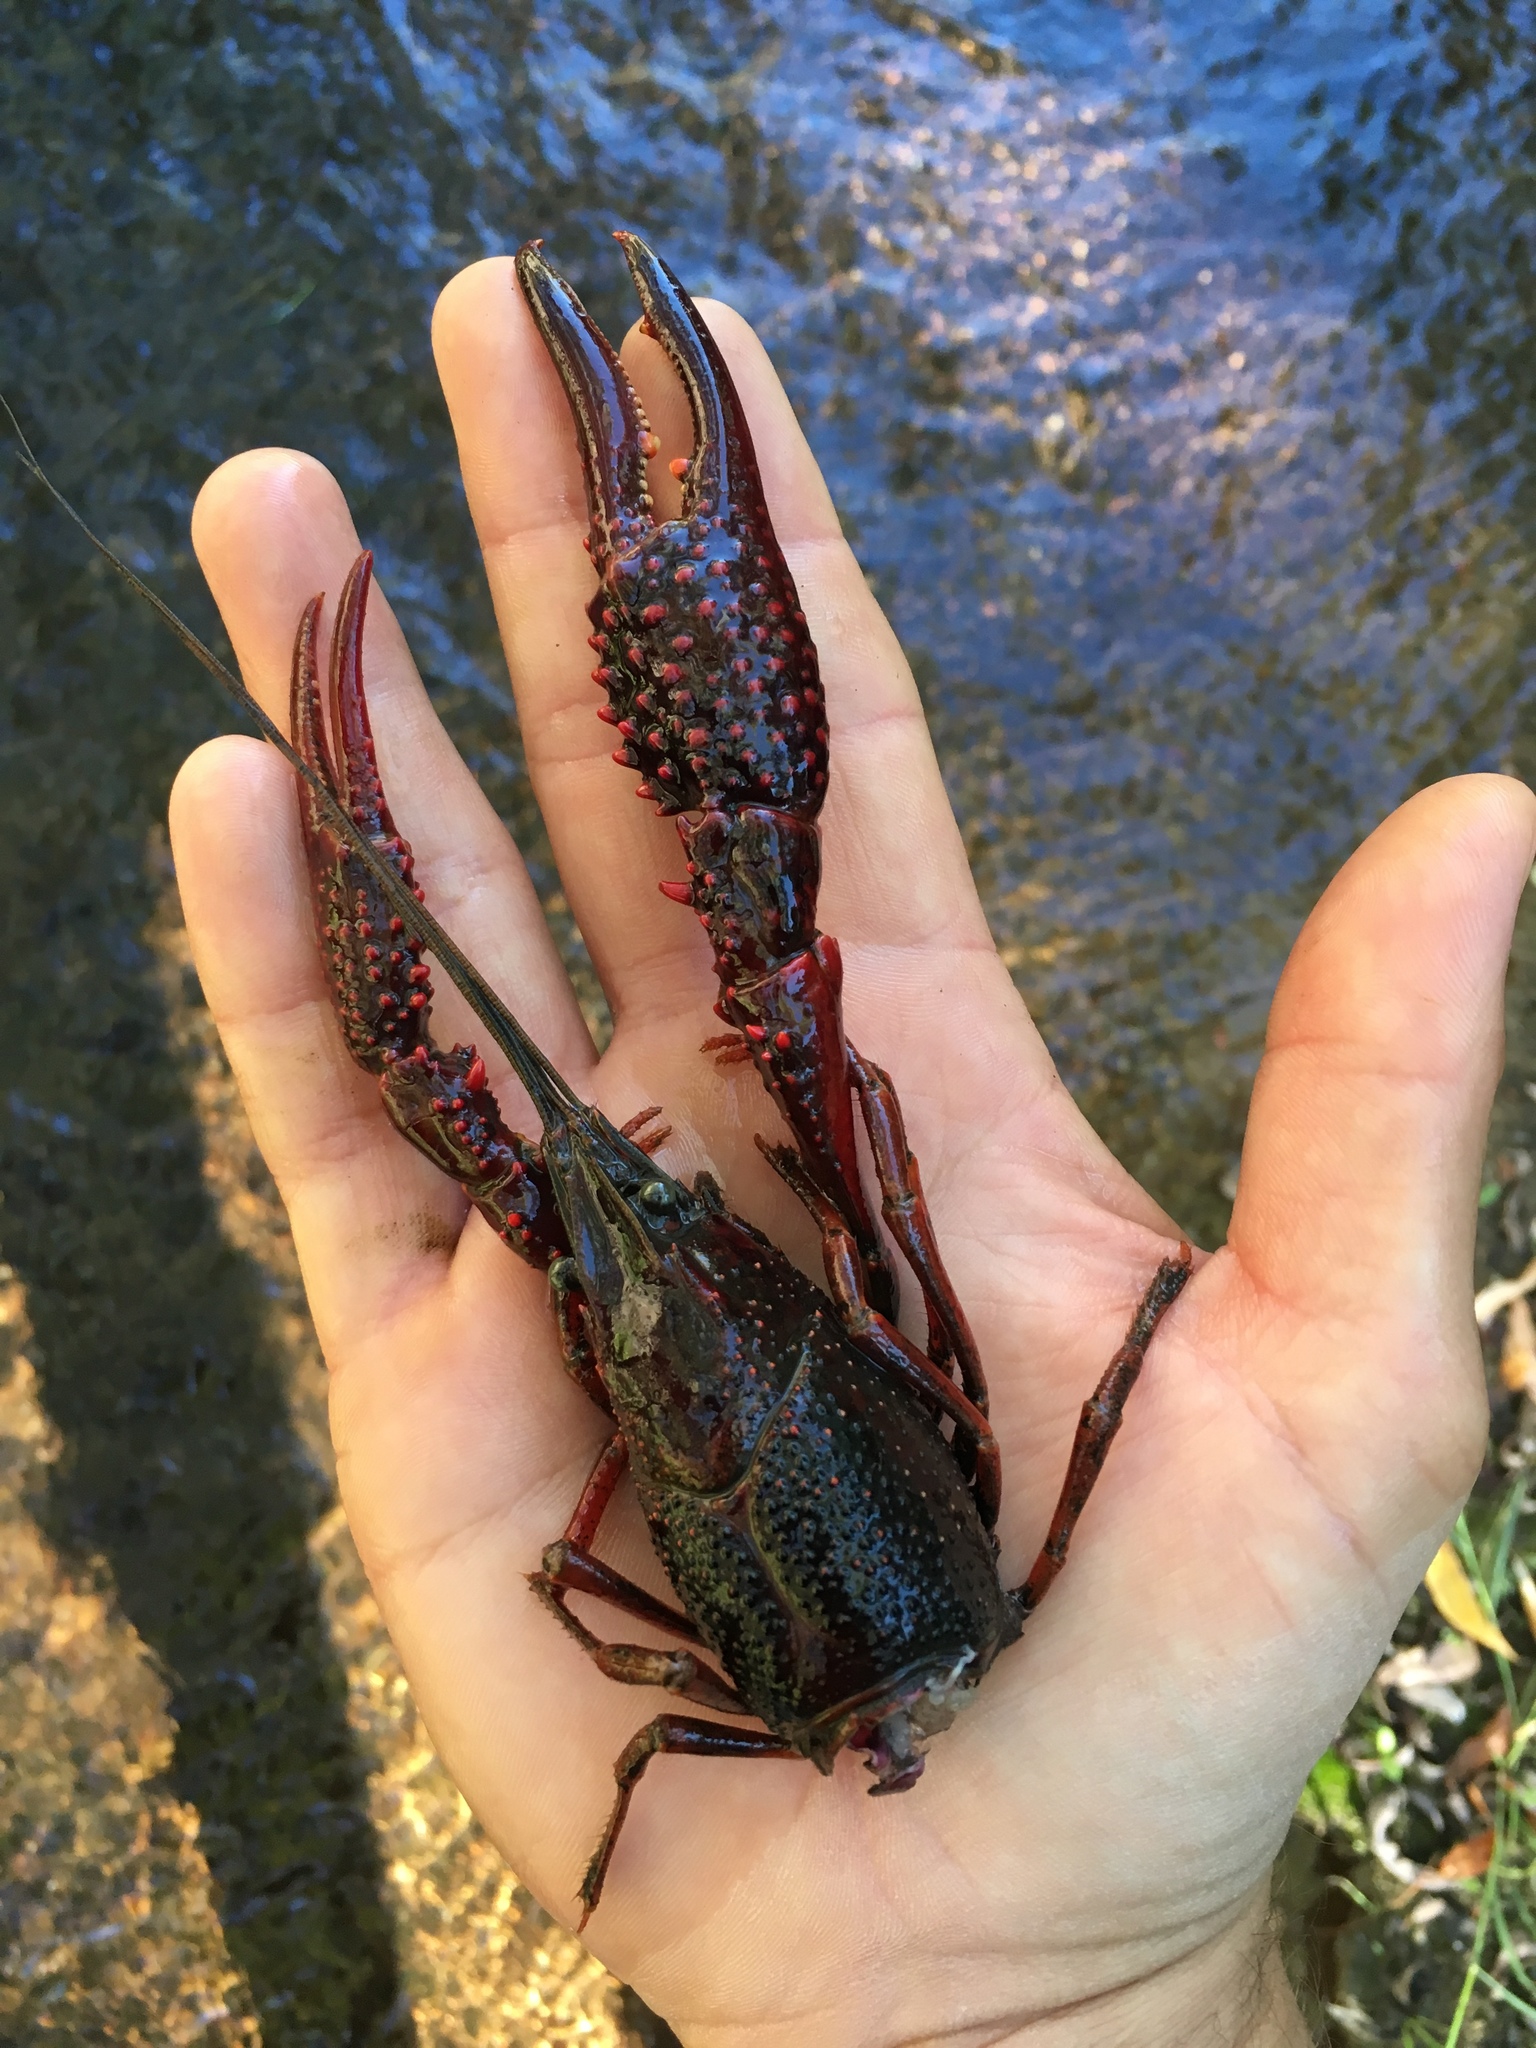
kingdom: Animalia
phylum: Arthropoda
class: Malacostraca
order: Decapoda
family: Cambaridae
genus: Procambarus
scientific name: Procambarus clarkii
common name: Red swamp crayfish
